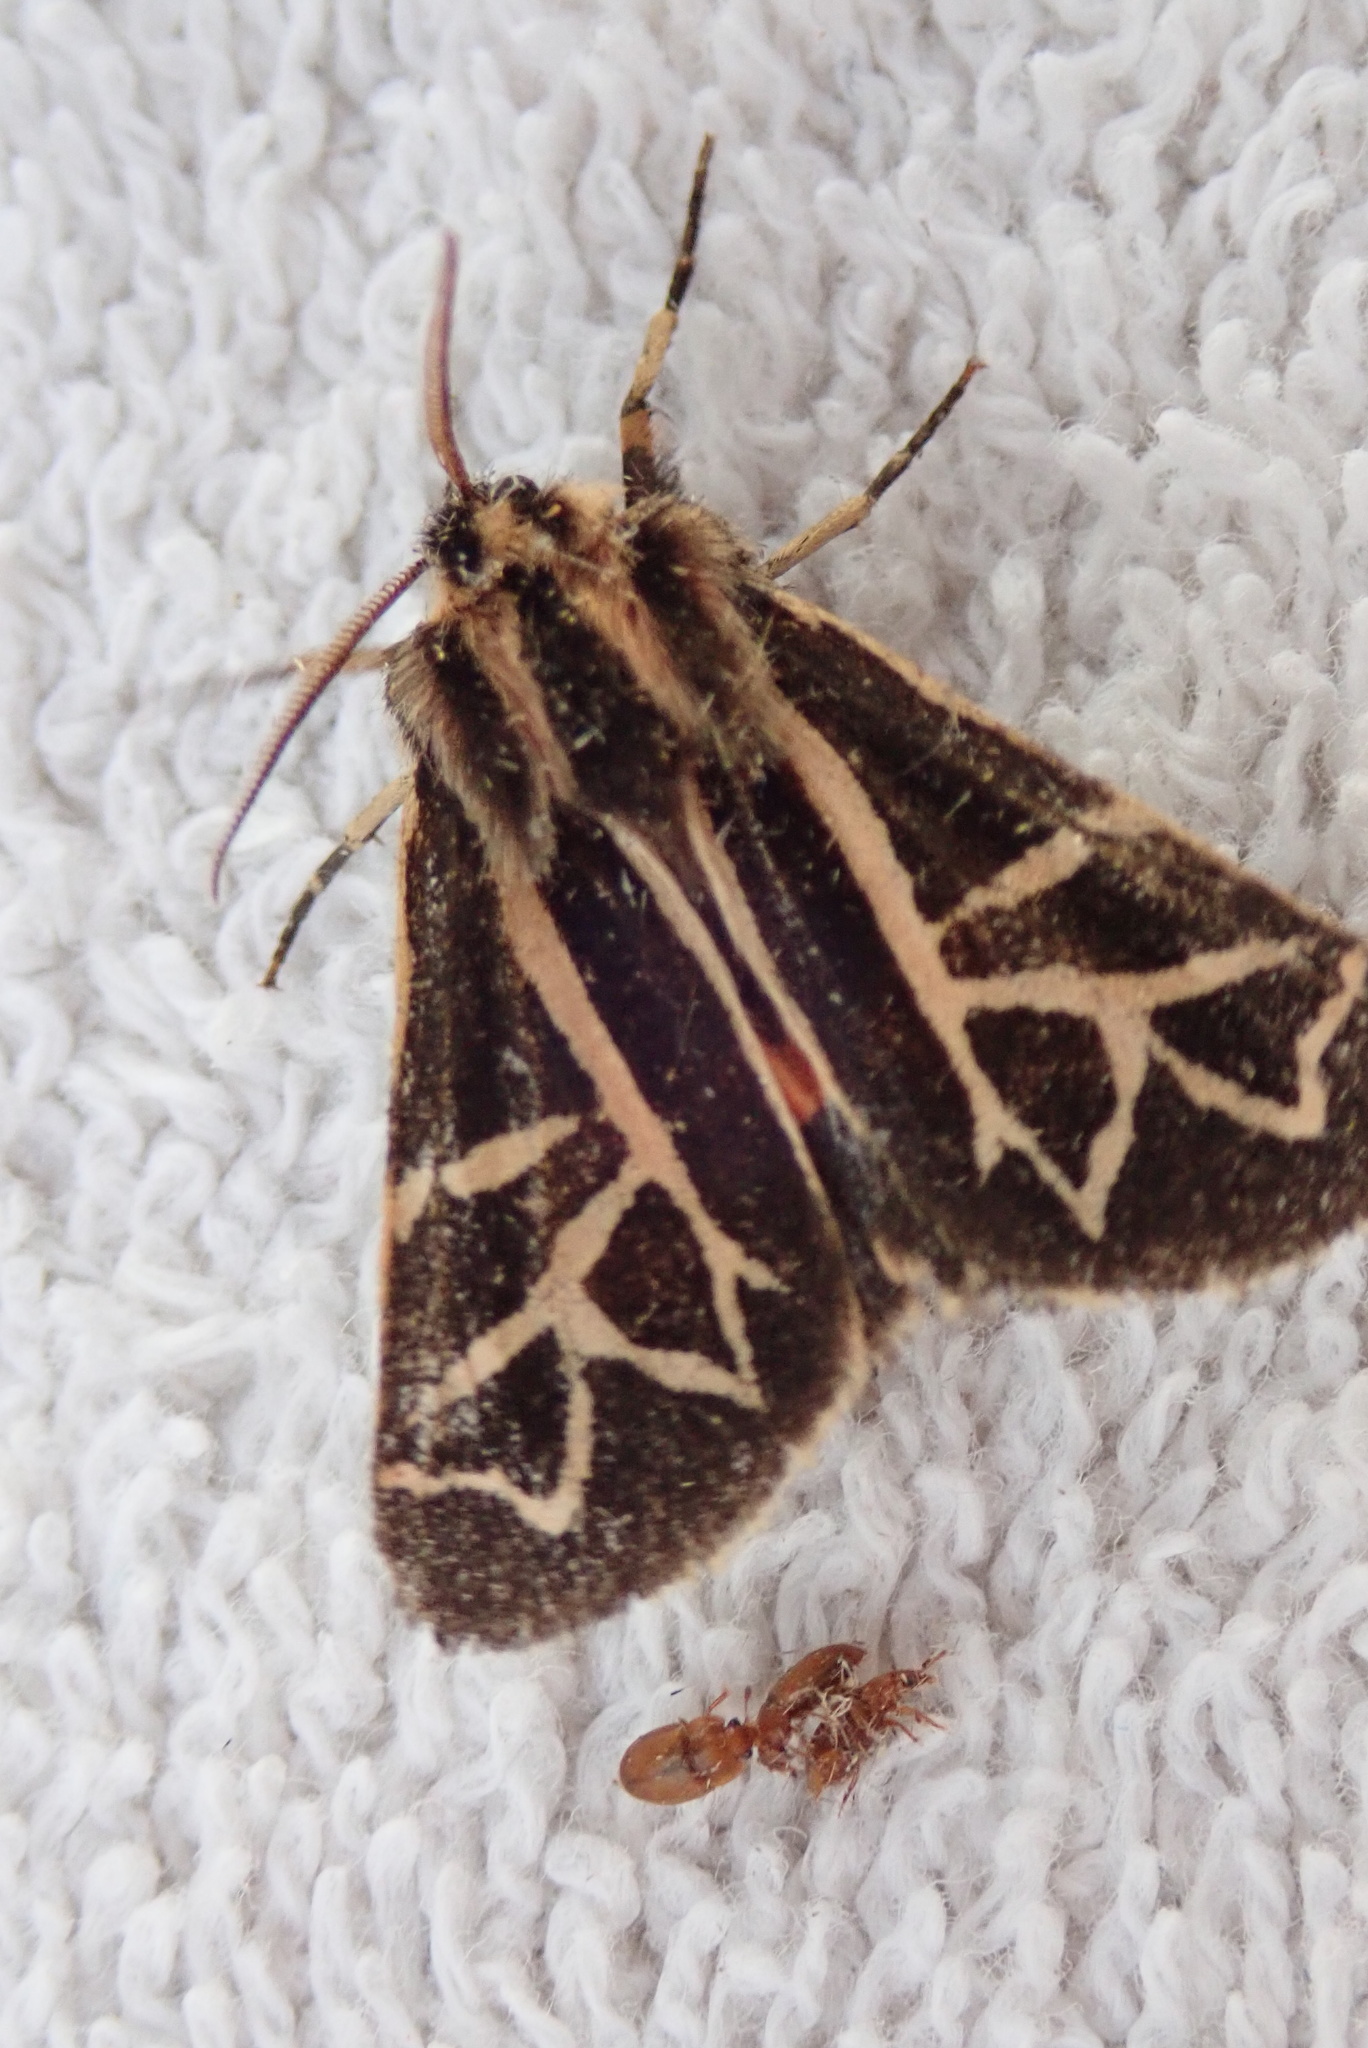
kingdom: Animalia
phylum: Arthropoda
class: Insecta
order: Lepidoptera
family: Erebidae
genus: Apantesis
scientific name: Apantesis
